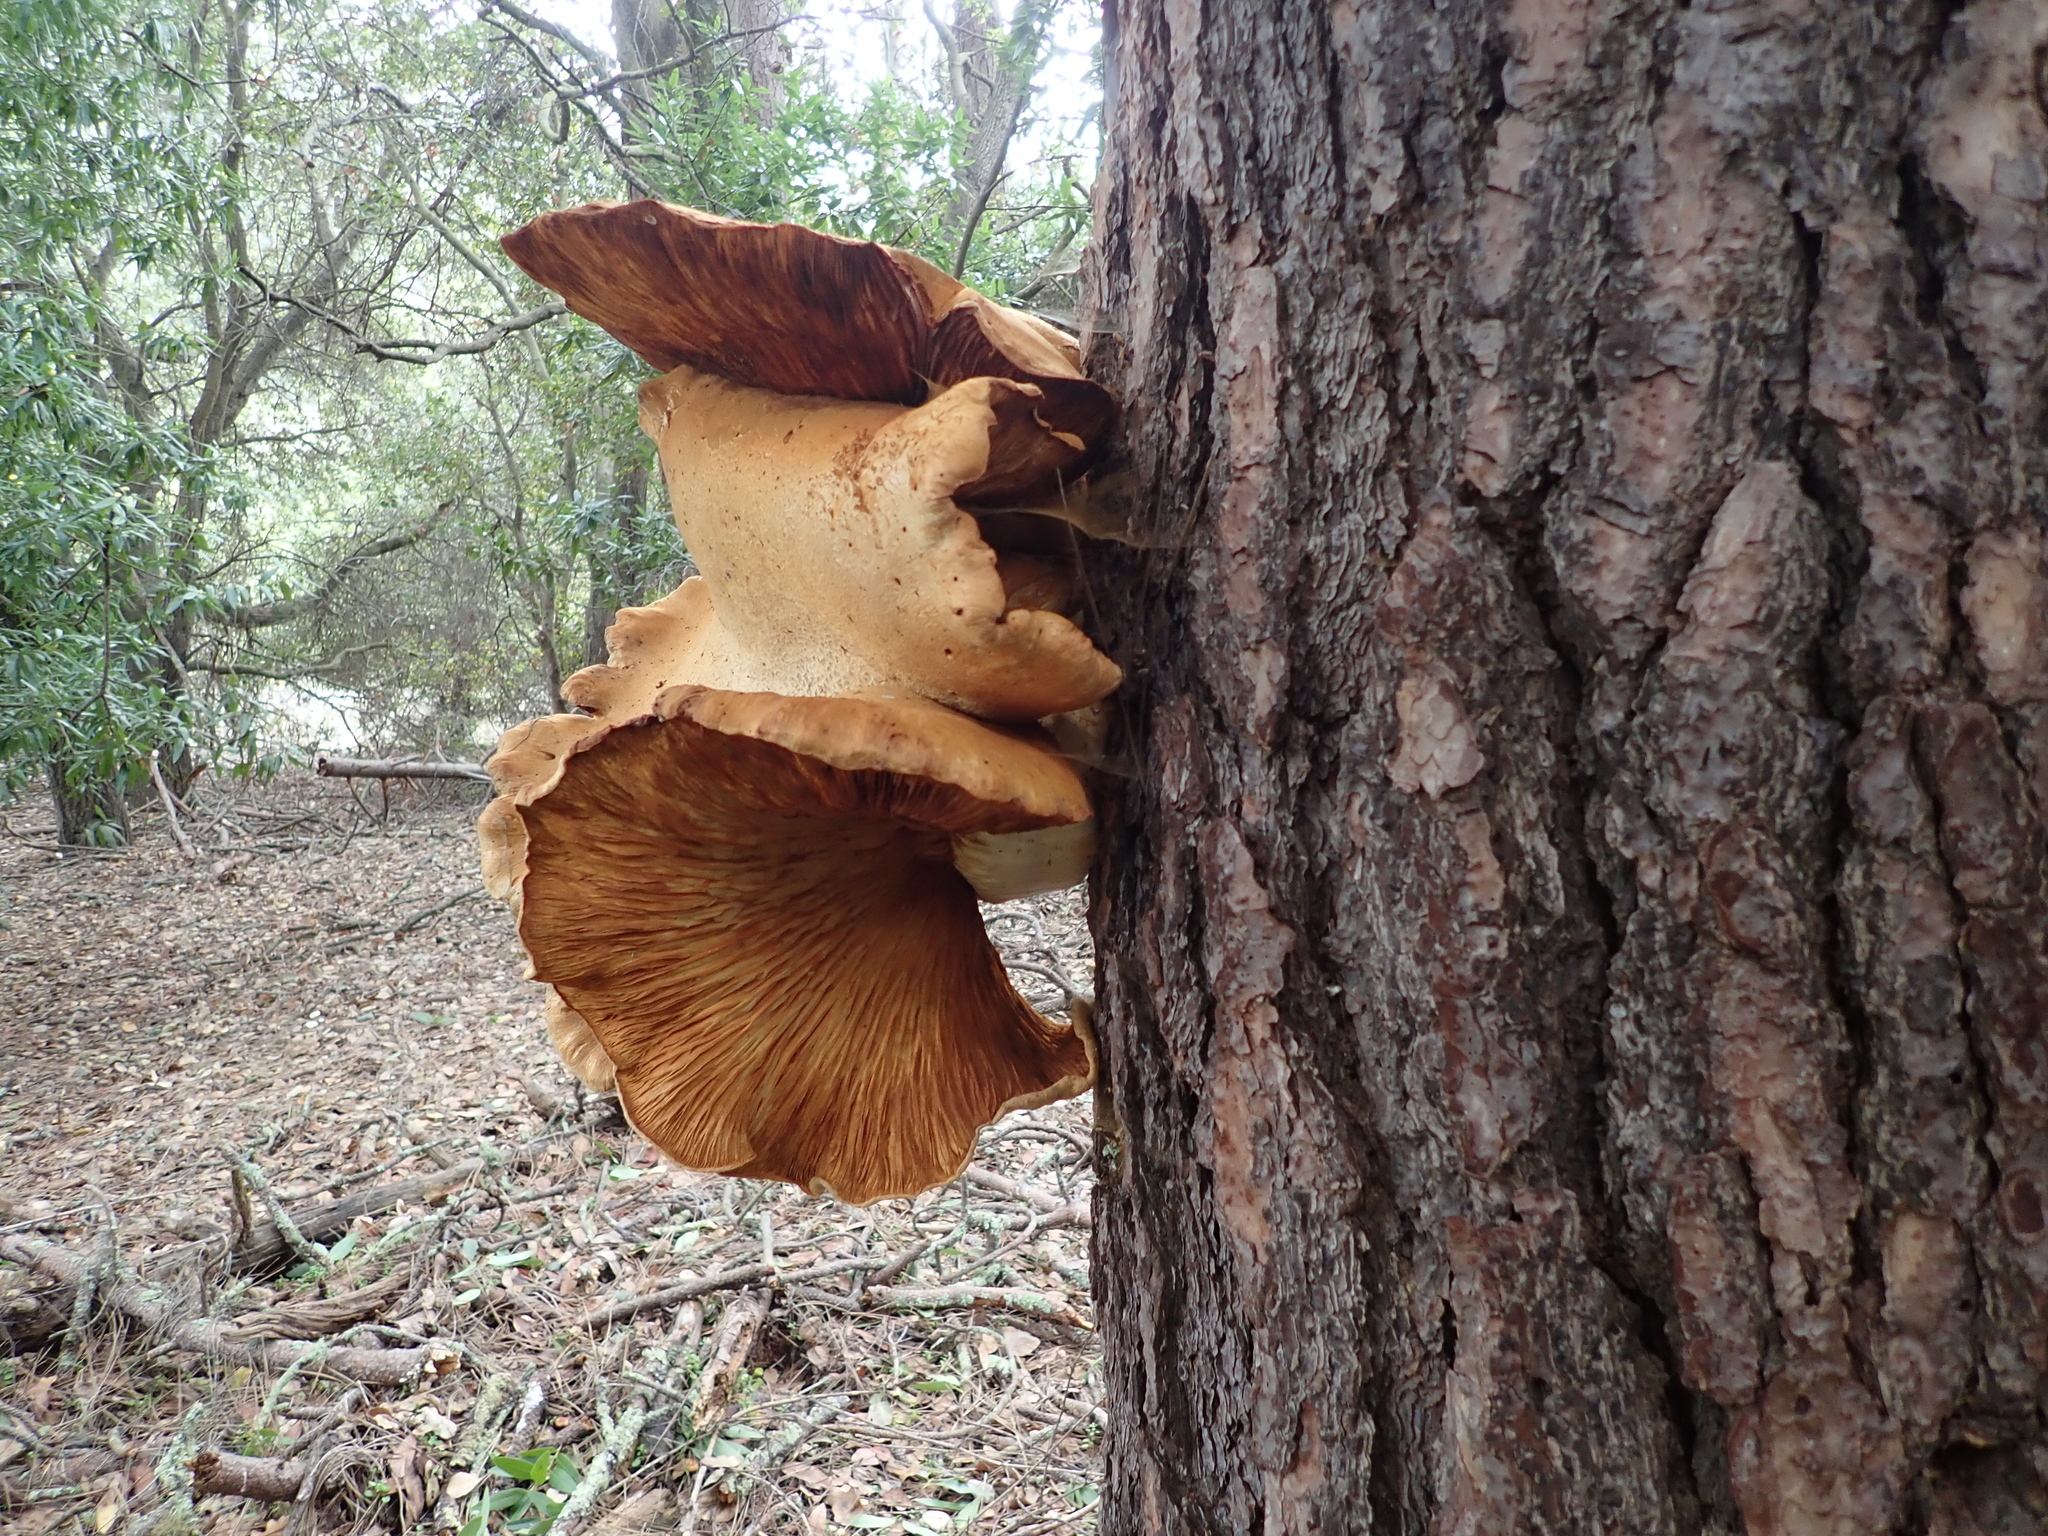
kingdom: Fungi
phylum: Basidiomycota
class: Agaricomycetes
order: Agaricales
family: Hymenogastraceae
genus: Gymnopilus
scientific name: Gymnopilus ventricosus
